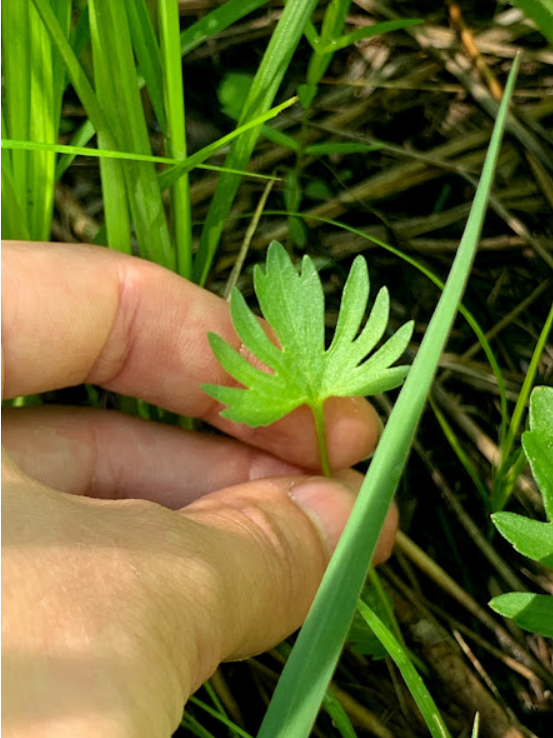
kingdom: Plantae
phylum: Tracheophyta
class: Magnoliopsida
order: Malpighiales
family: Violaceae
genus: Viola
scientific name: Viola pedatifida
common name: Prairie violet
